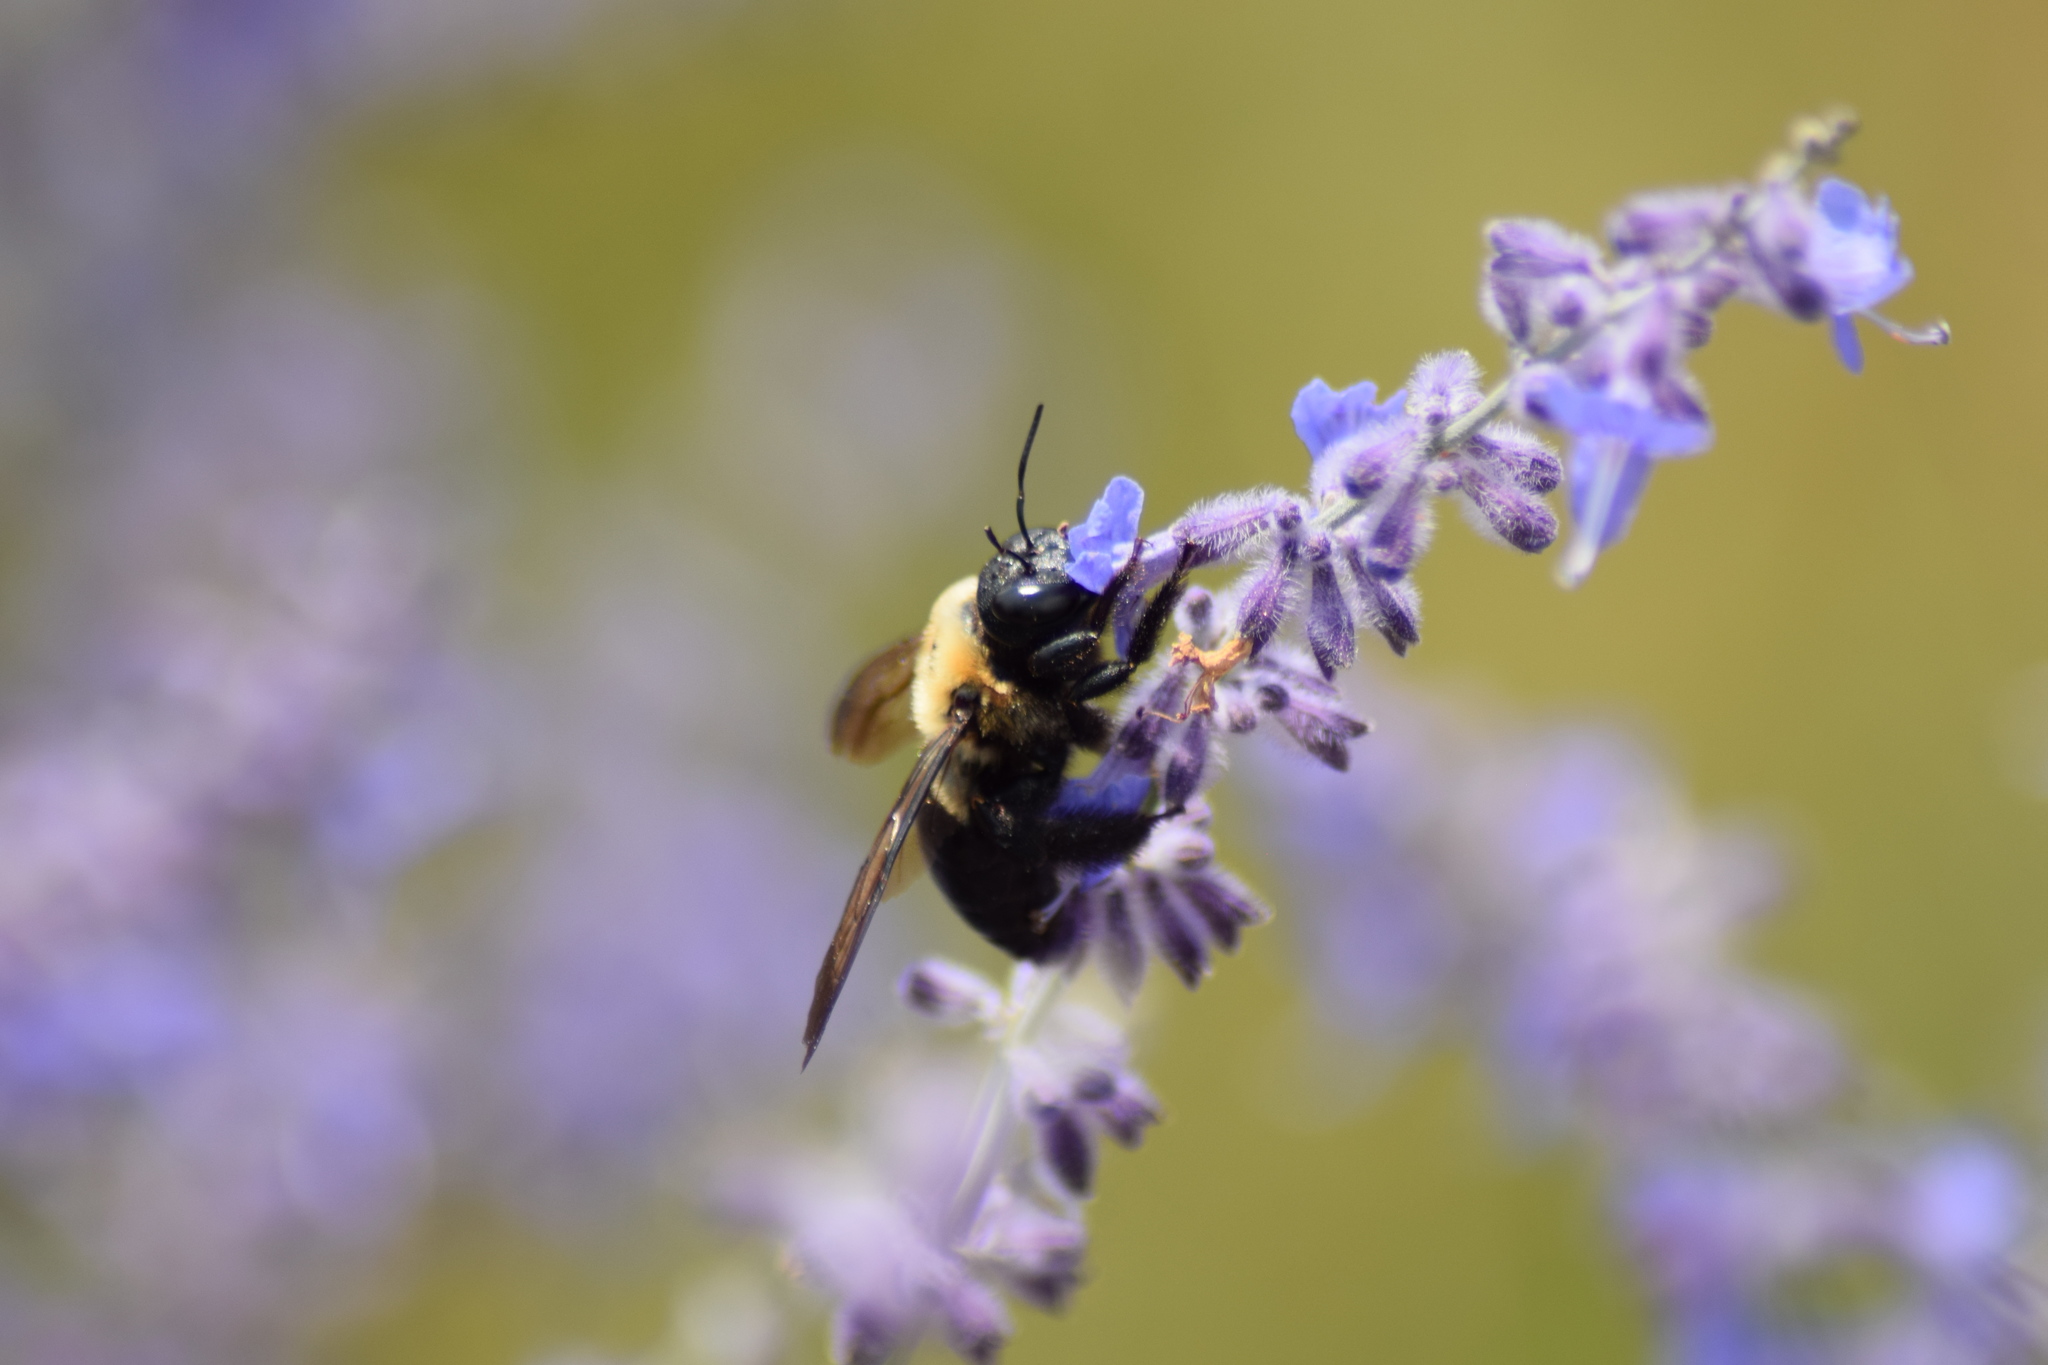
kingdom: Animalia
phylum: Arthropoda
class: Insecta
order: Hymenoptera
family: Apidae
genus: Xylocopa
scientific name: Xylocopa virginica
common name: Carpenter bee
